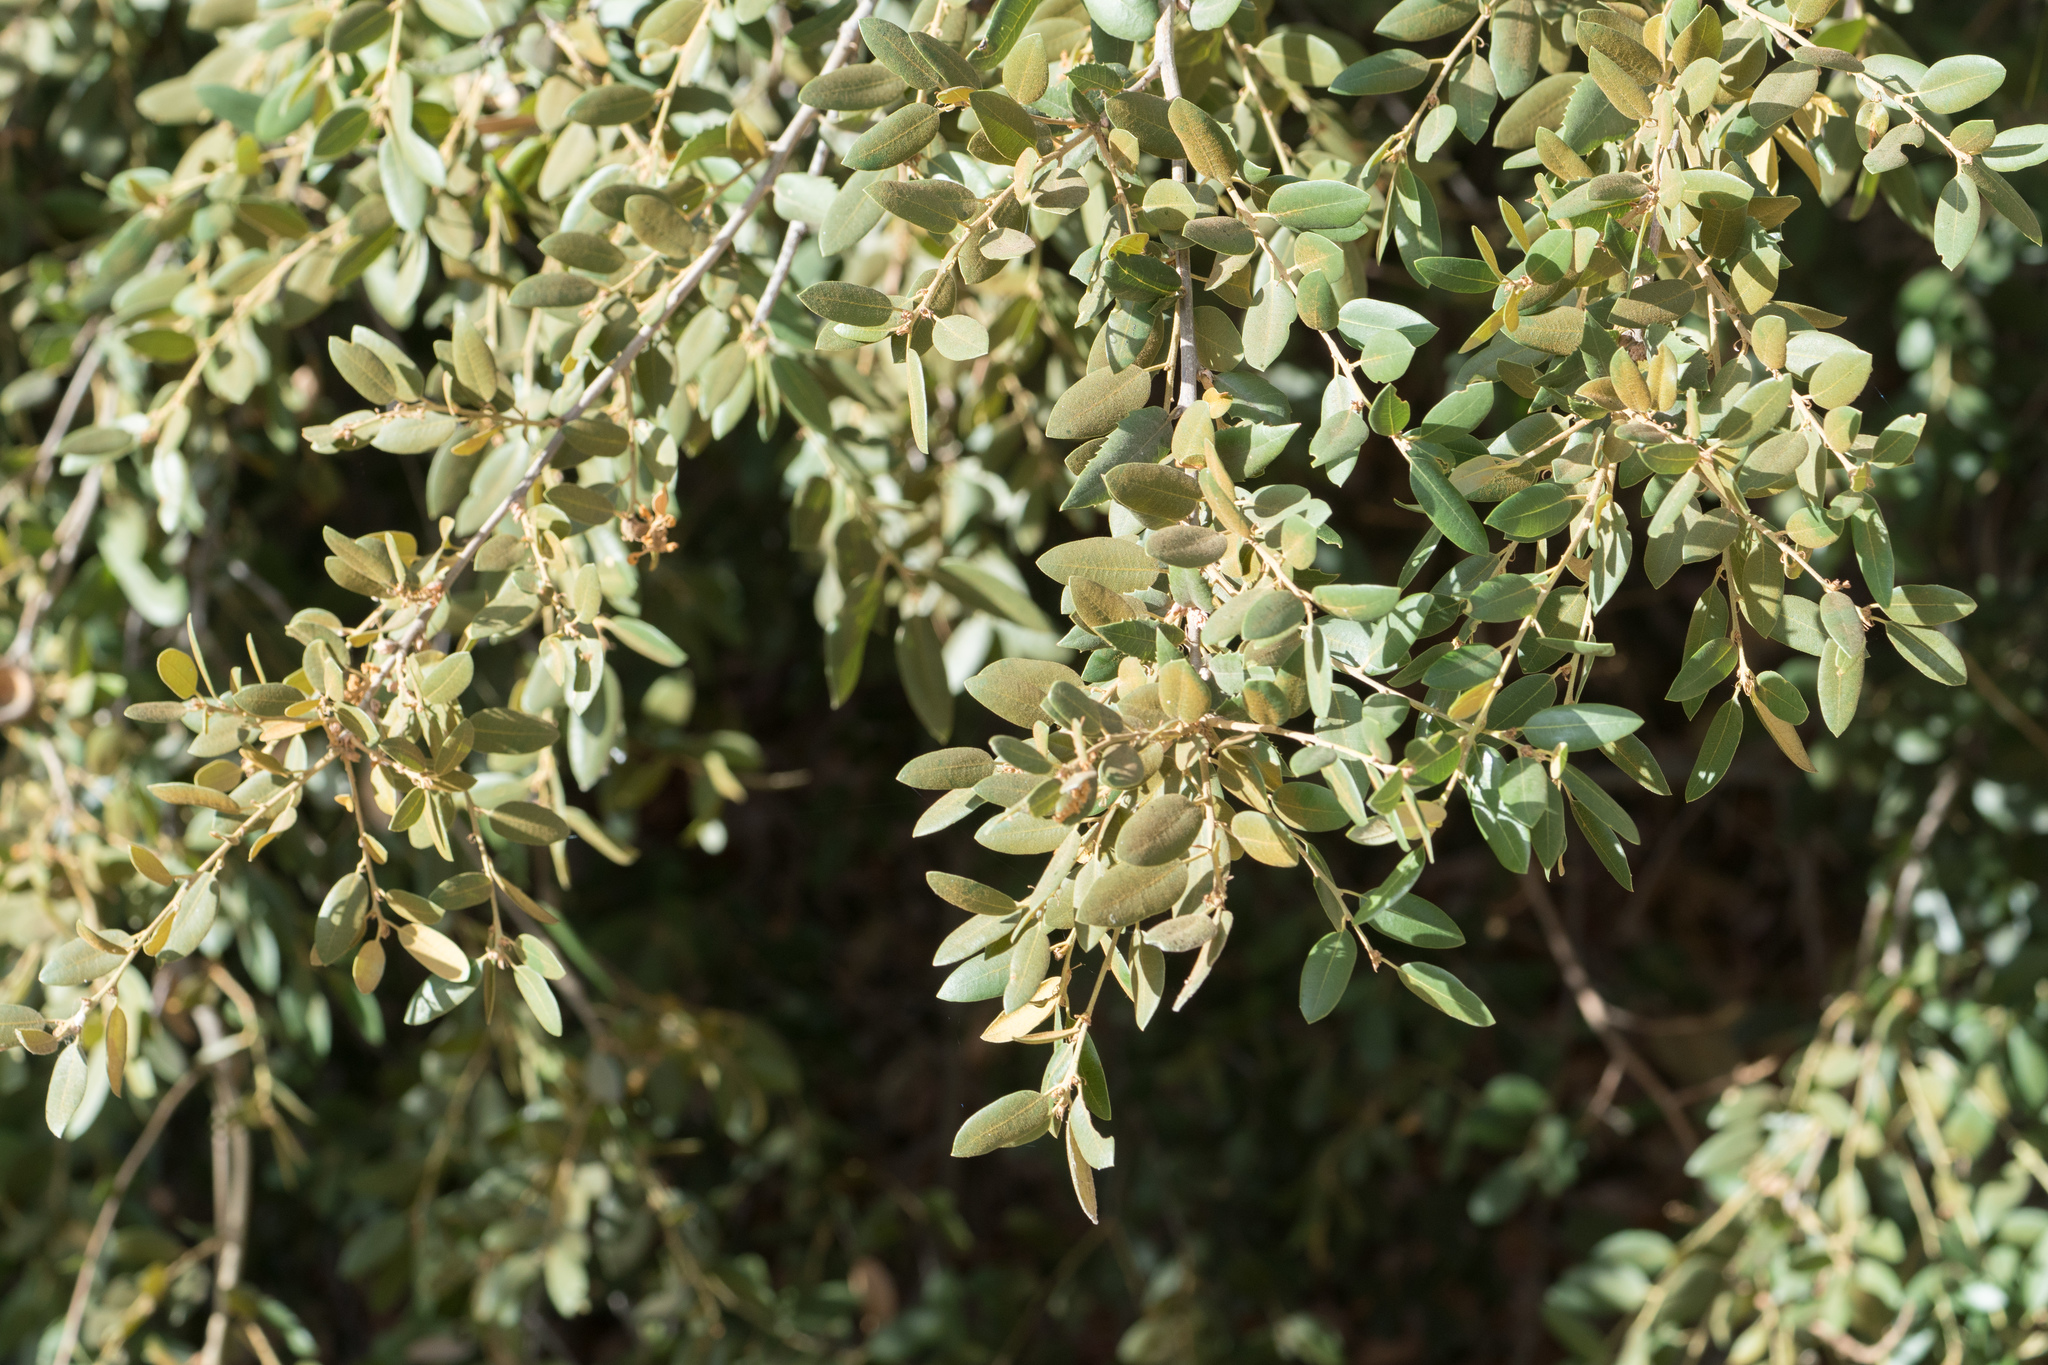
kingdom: Plantae
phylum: Tracheophyta
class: Magnoliopsida
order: Fagales
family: Fagaceae
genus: Quercus
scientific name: Quercus chrysolepis
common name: Canyon live oak
